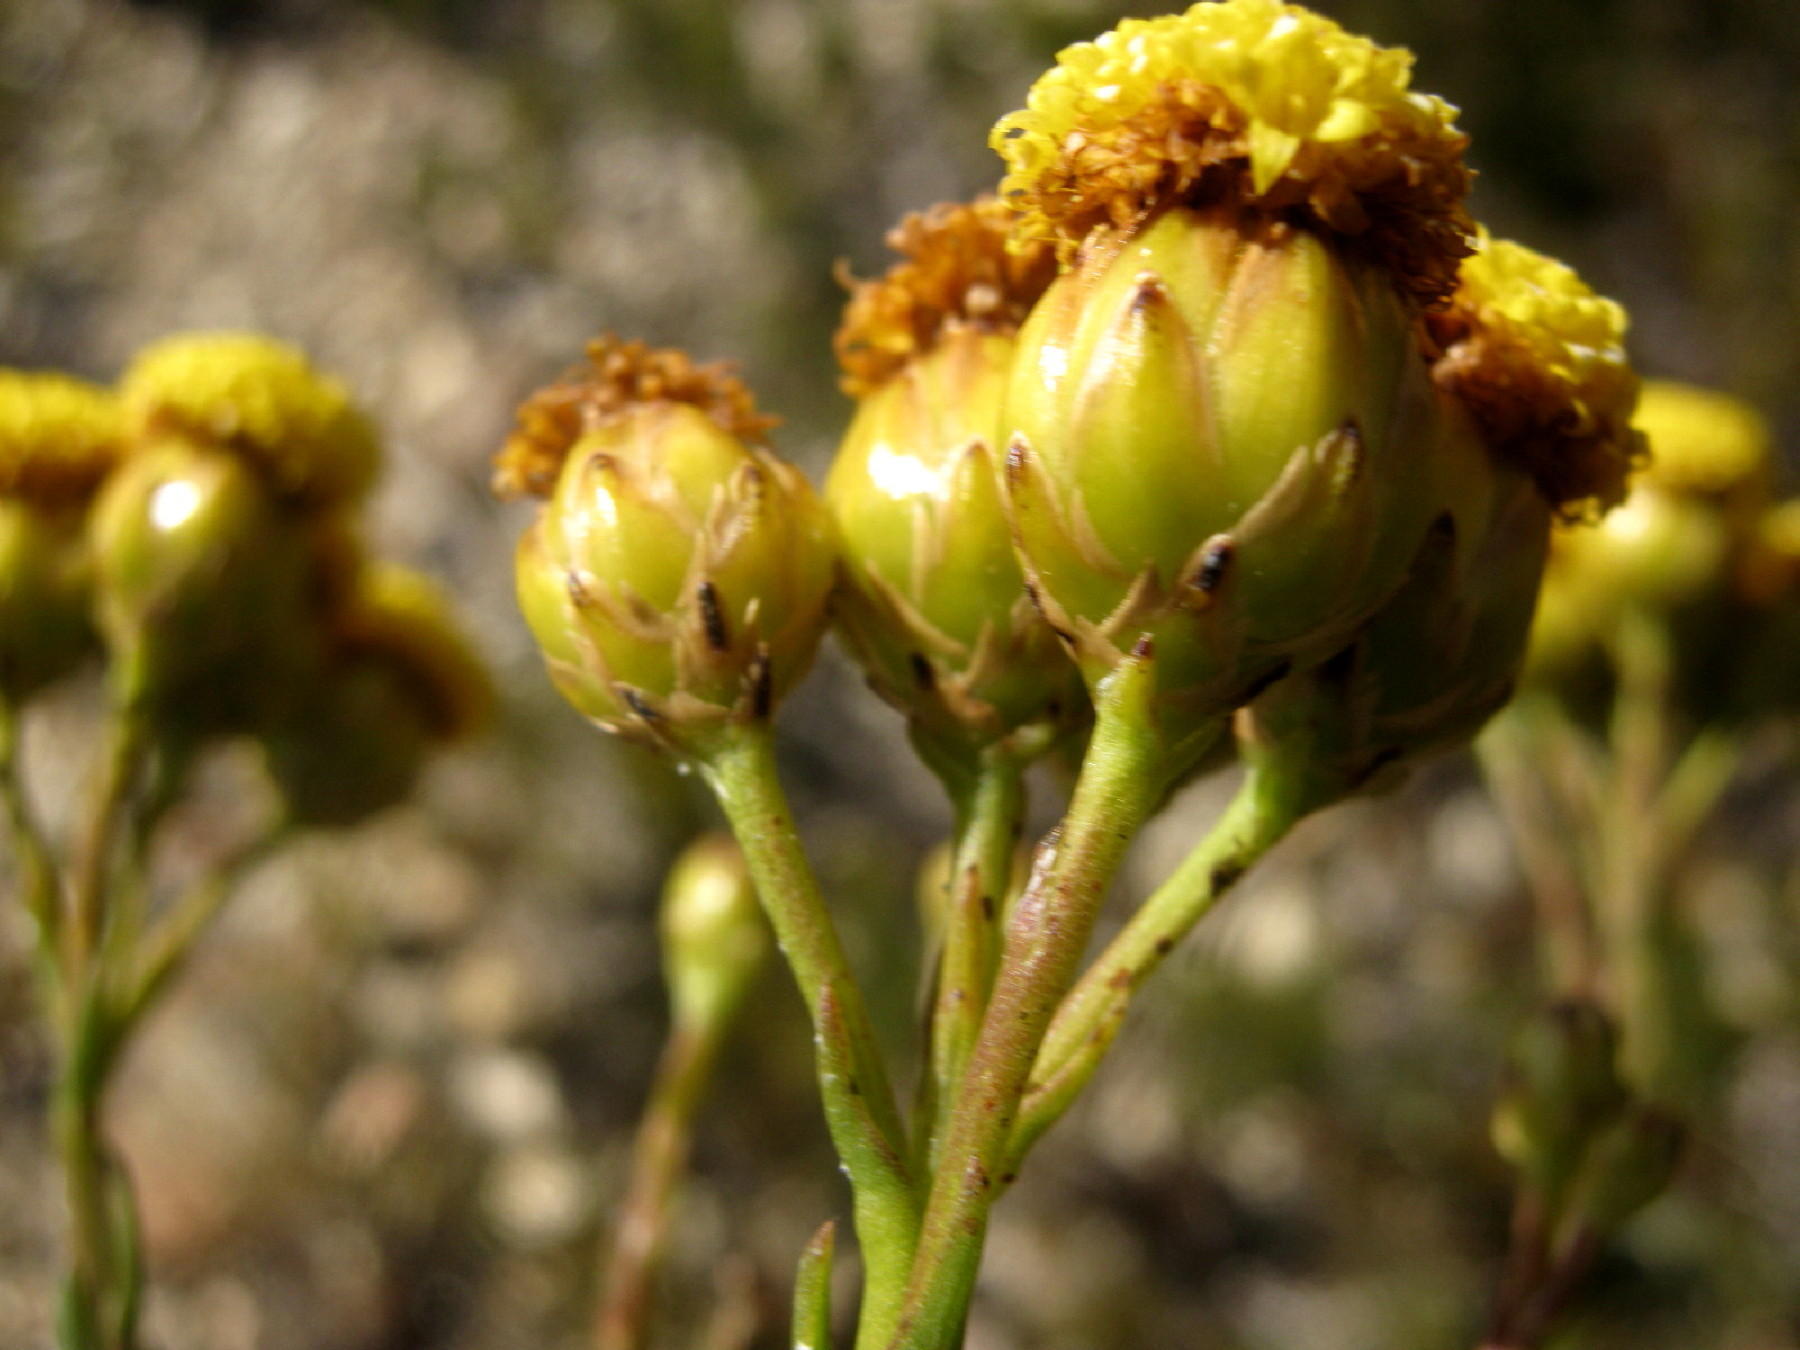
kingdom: Plantae
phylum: Tracheophyta
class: Magnoliopsida
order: Asterales
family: Asteraceae
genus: Athanasia
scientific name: Athanasia linifolia
